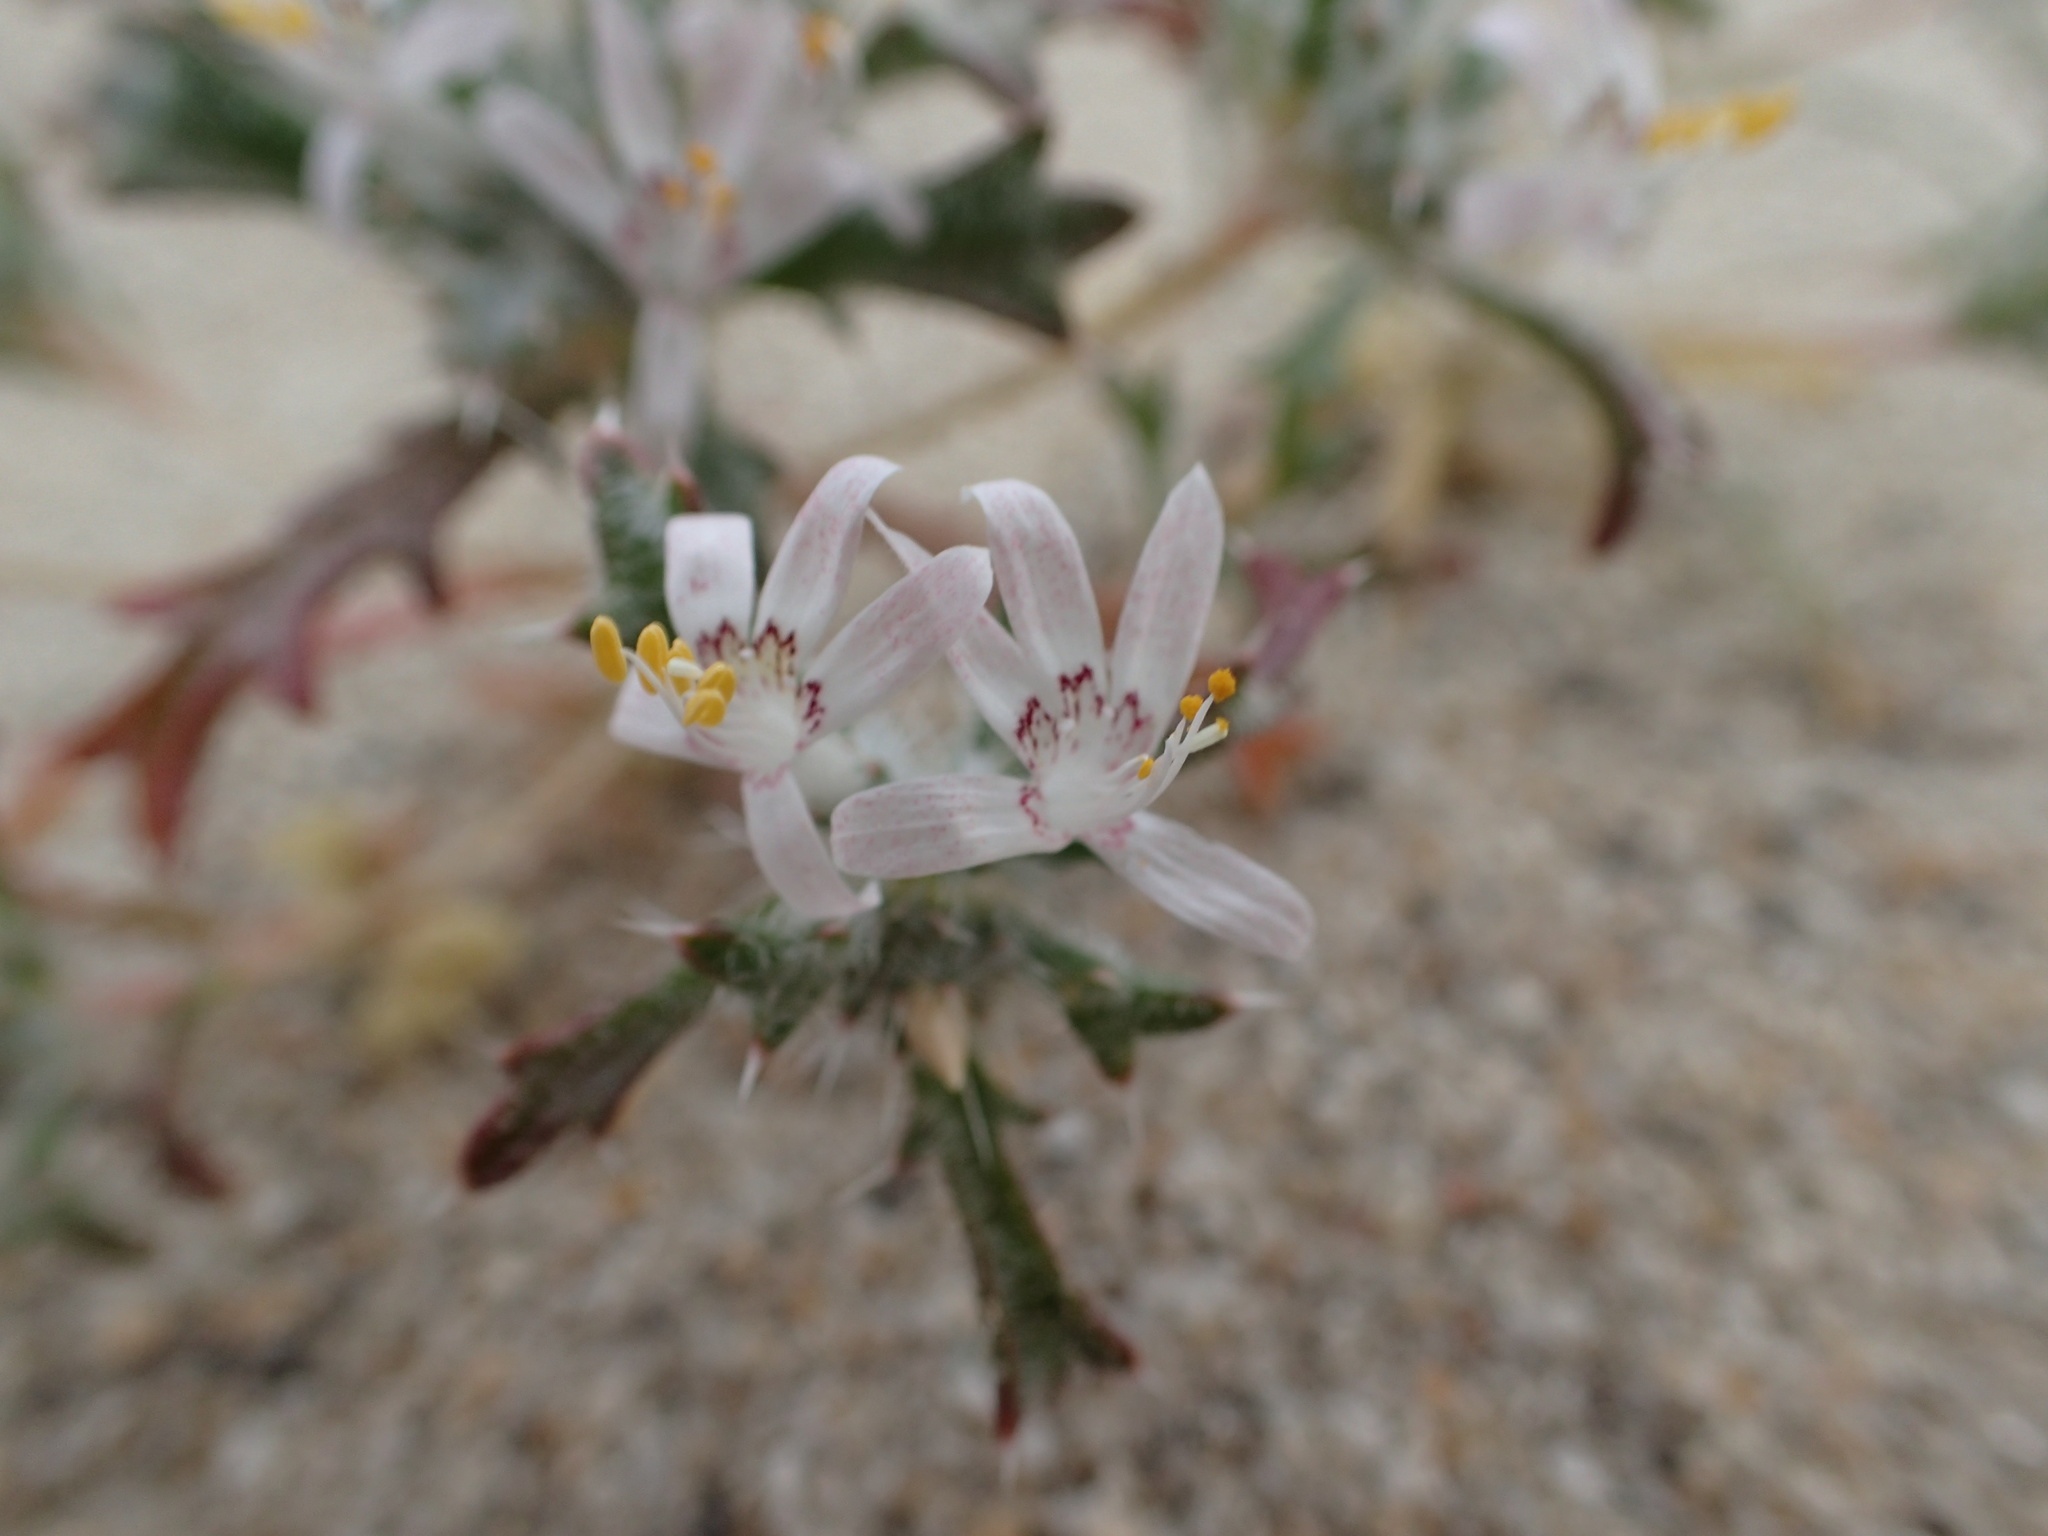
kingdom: Plantae
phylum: Tracheophyta
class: Magnoliopsida
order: Ericales
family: Polemoniaceae
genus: Loeseliastrum
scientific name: Loeseliastrum matthewsii
